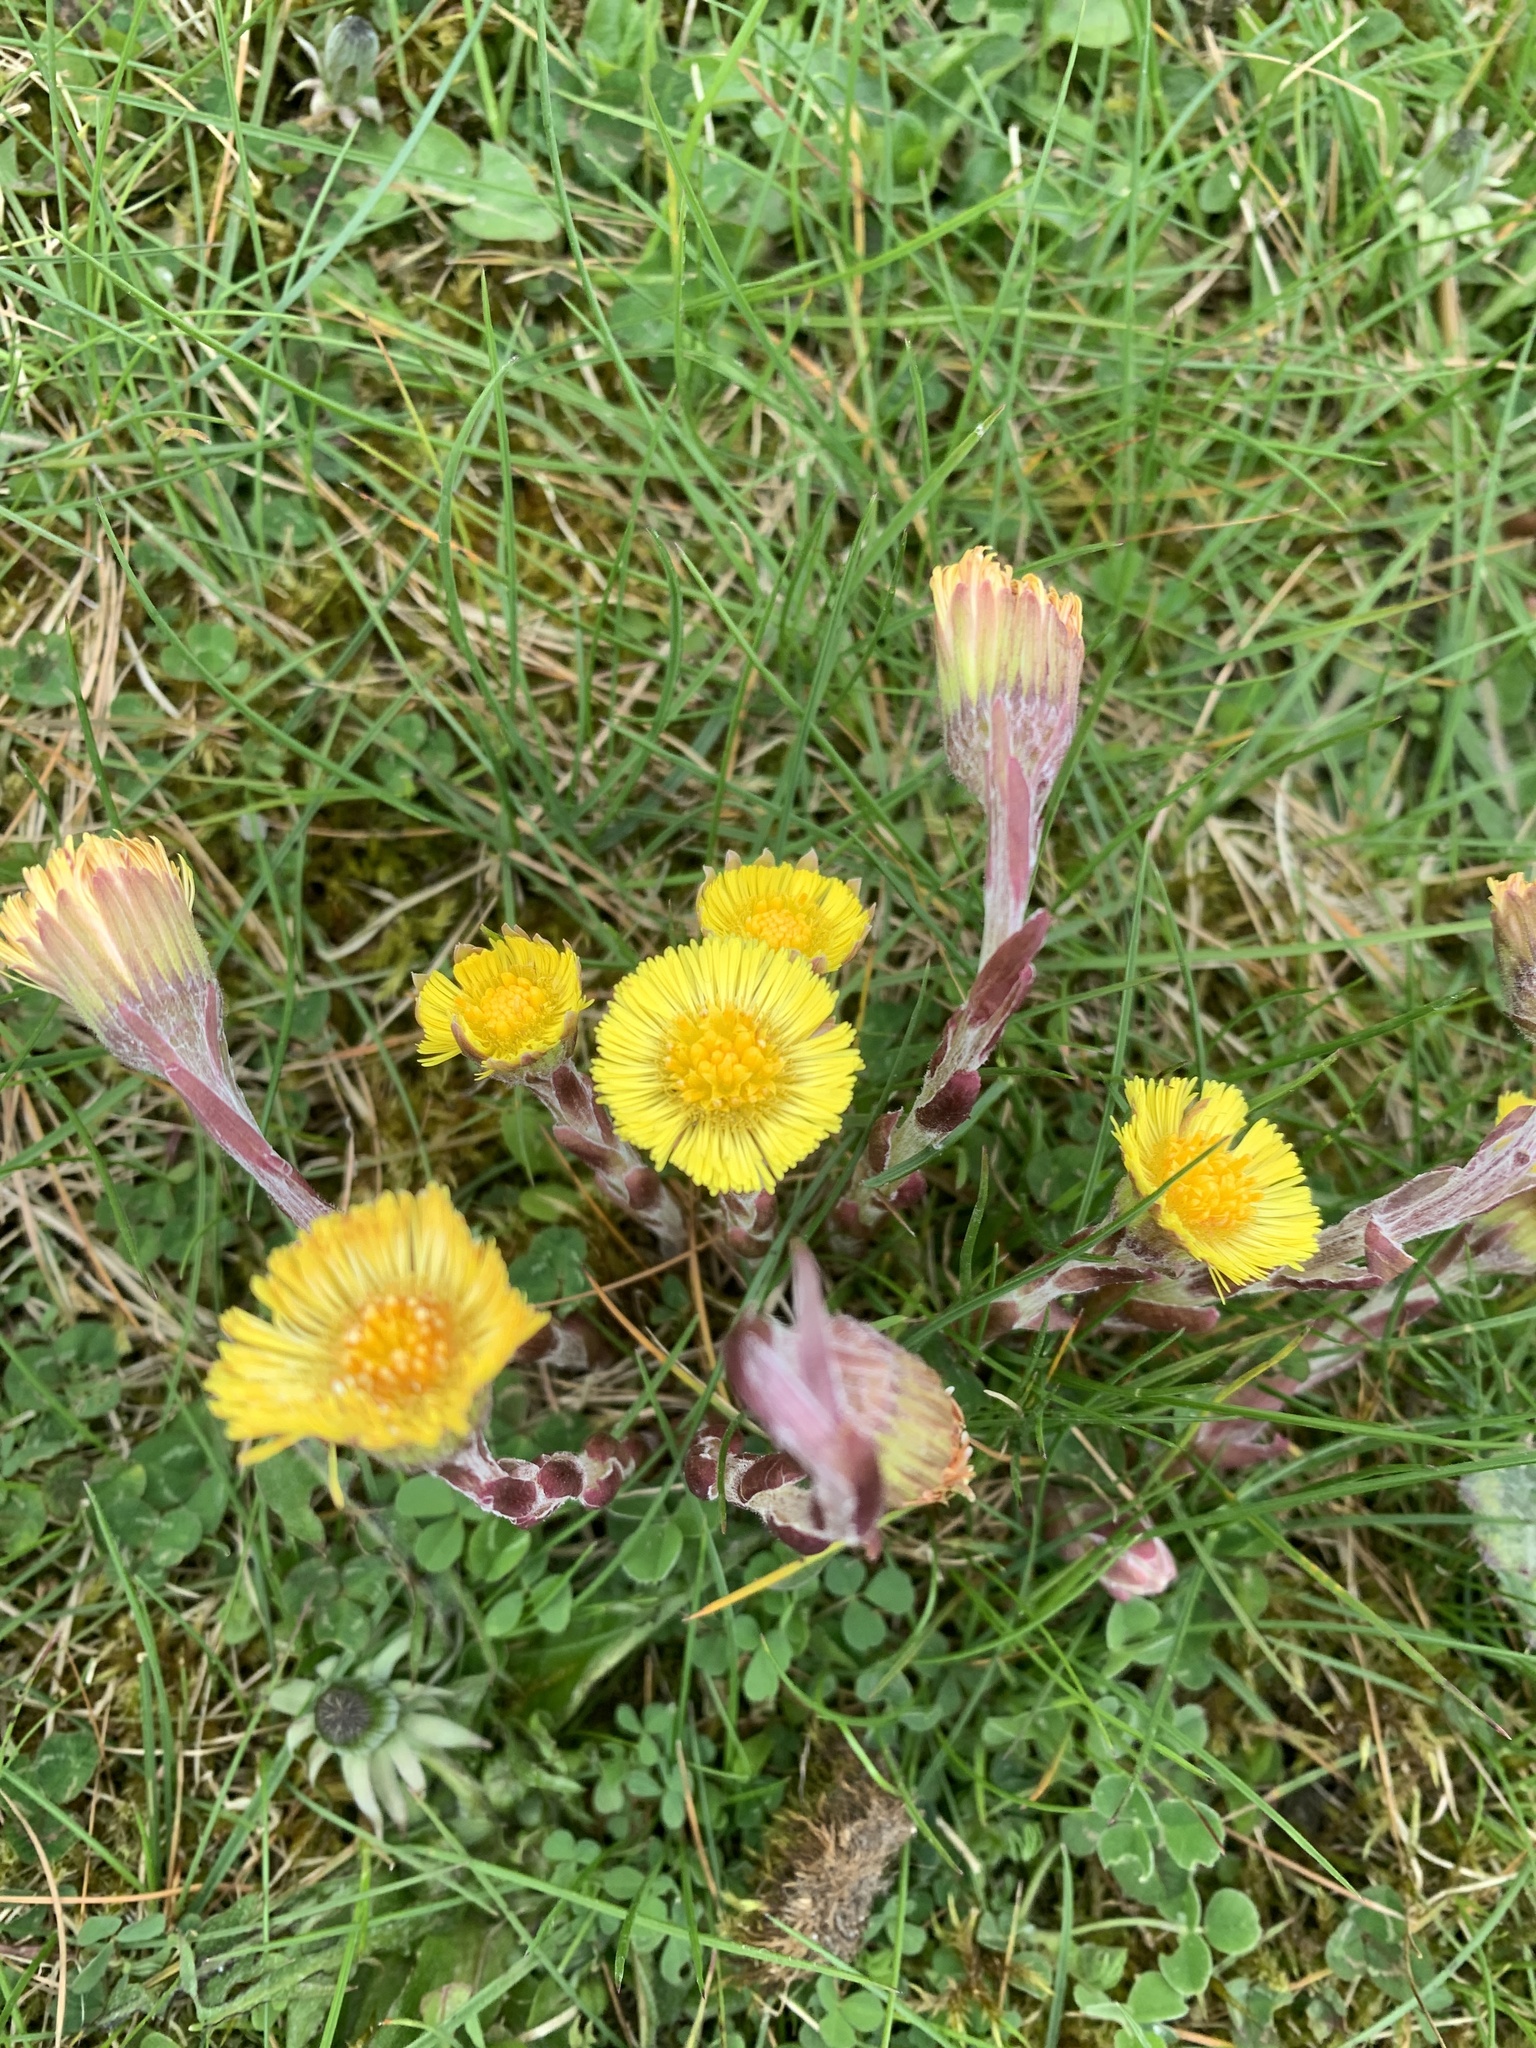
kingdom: Plantae
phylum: Tracheophyta
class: Magnoliopsida
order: Asterales
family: Asteraceae
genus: Tussilago
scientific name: Tussilago farfara
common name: Coltsfoot
